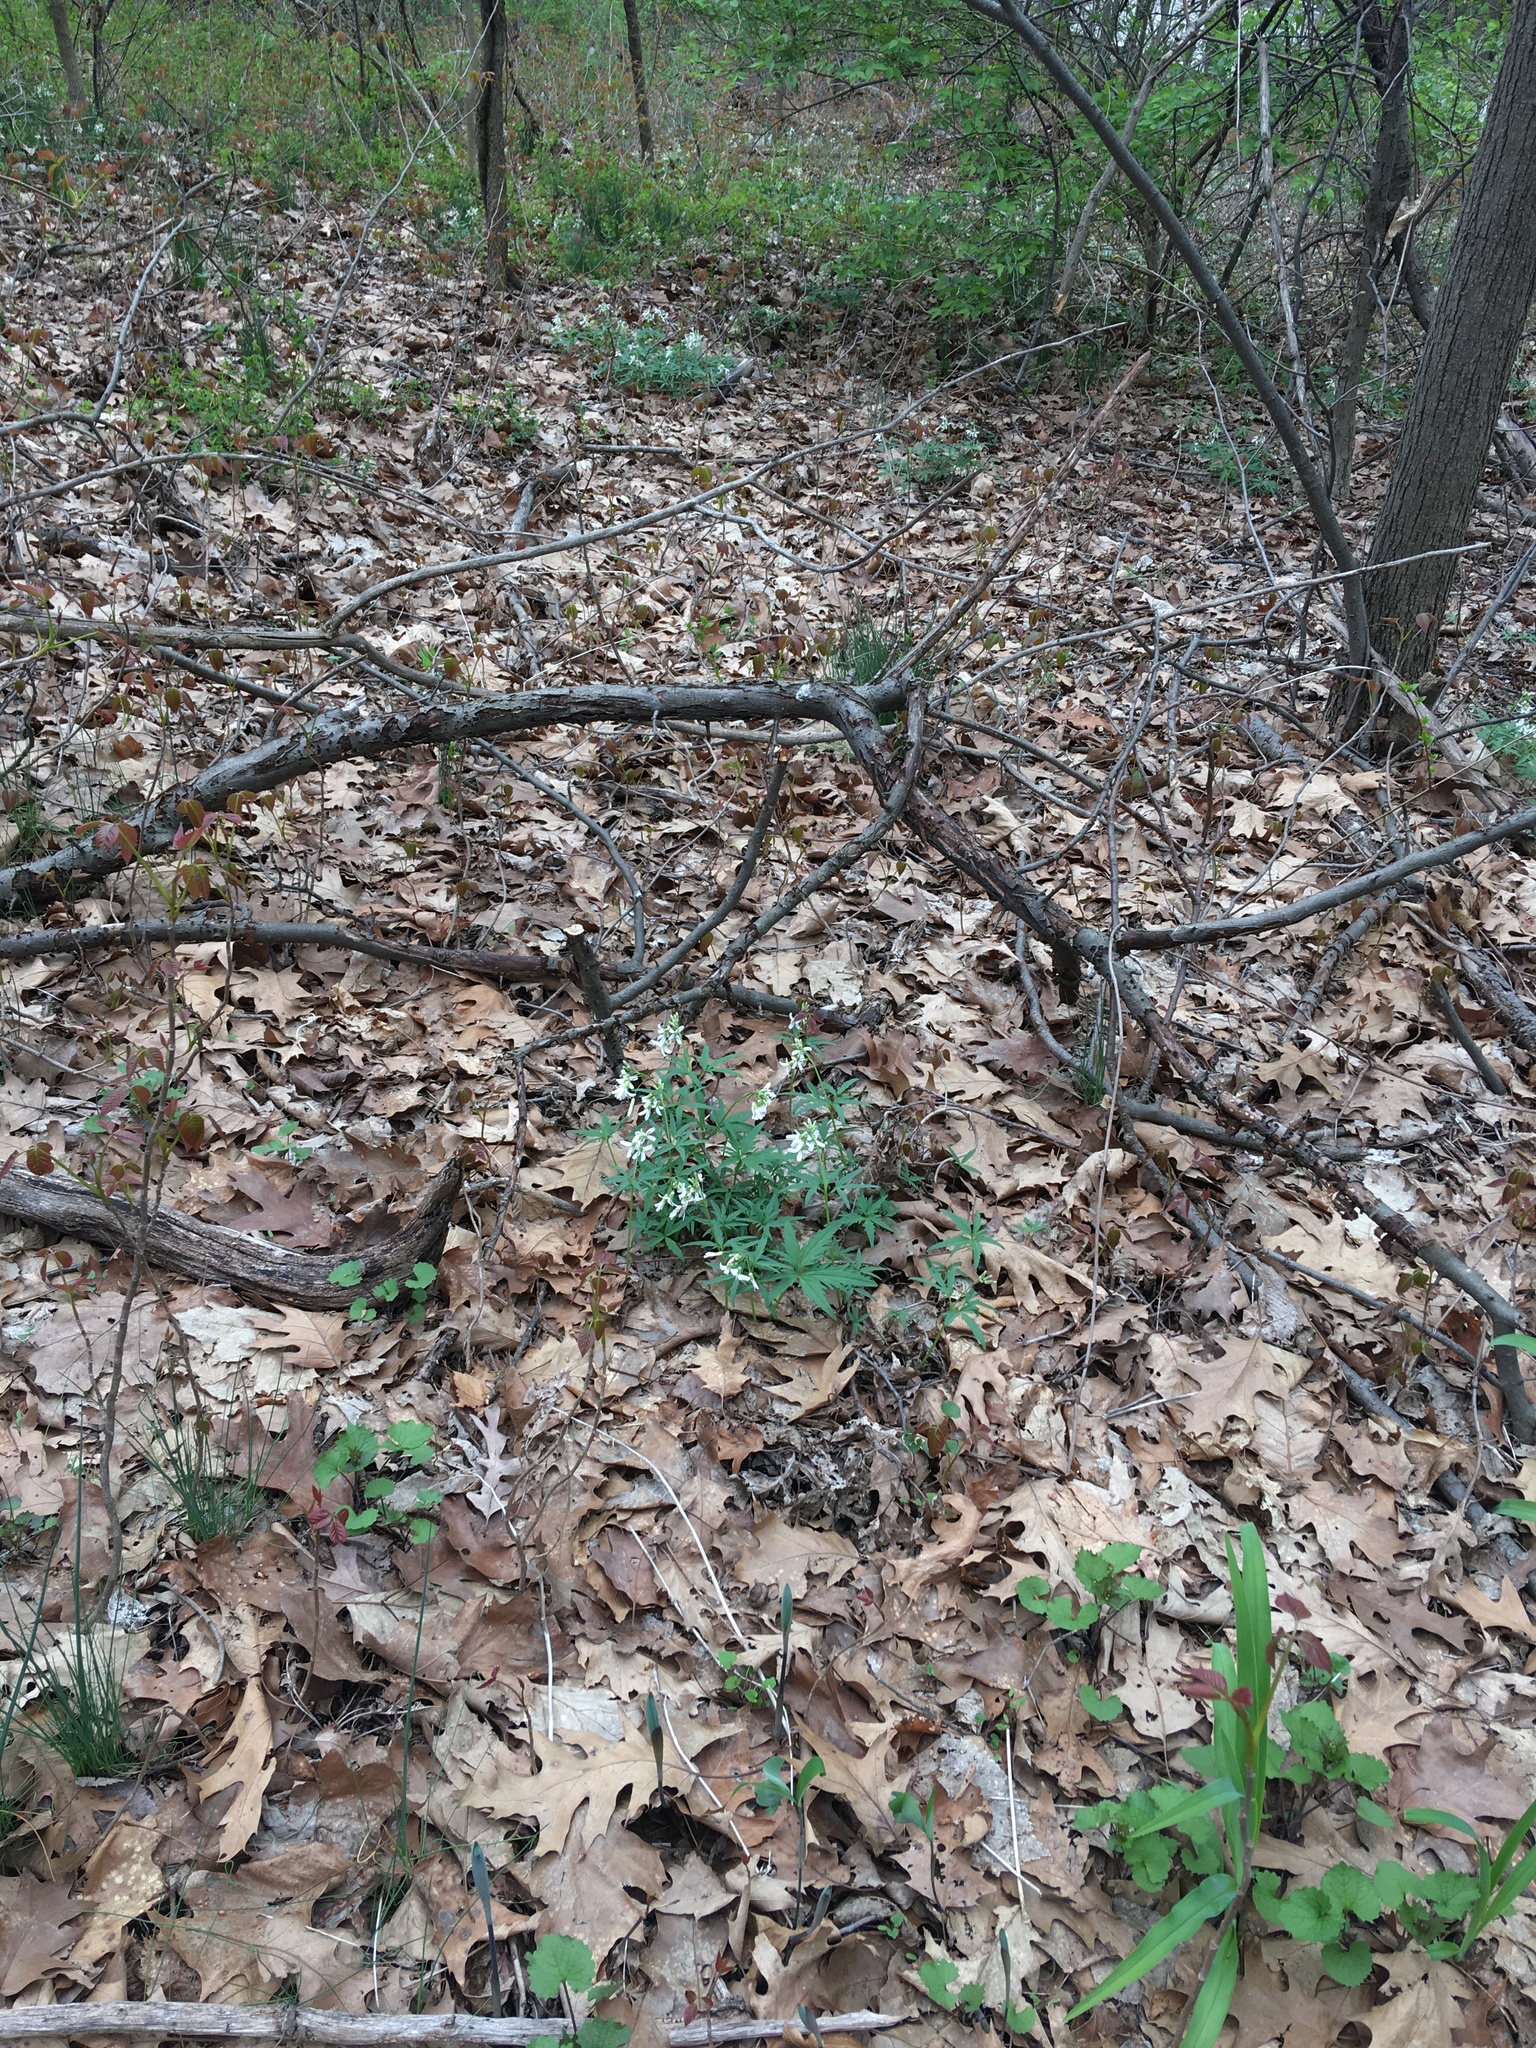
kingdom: Plantae
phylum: Tracheophyta
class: Magnoliopsida
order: Brassicales
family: Brassicaceae
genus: Cardamine
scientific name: Cardamine concatenata
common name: Cut-leaf toothcup
